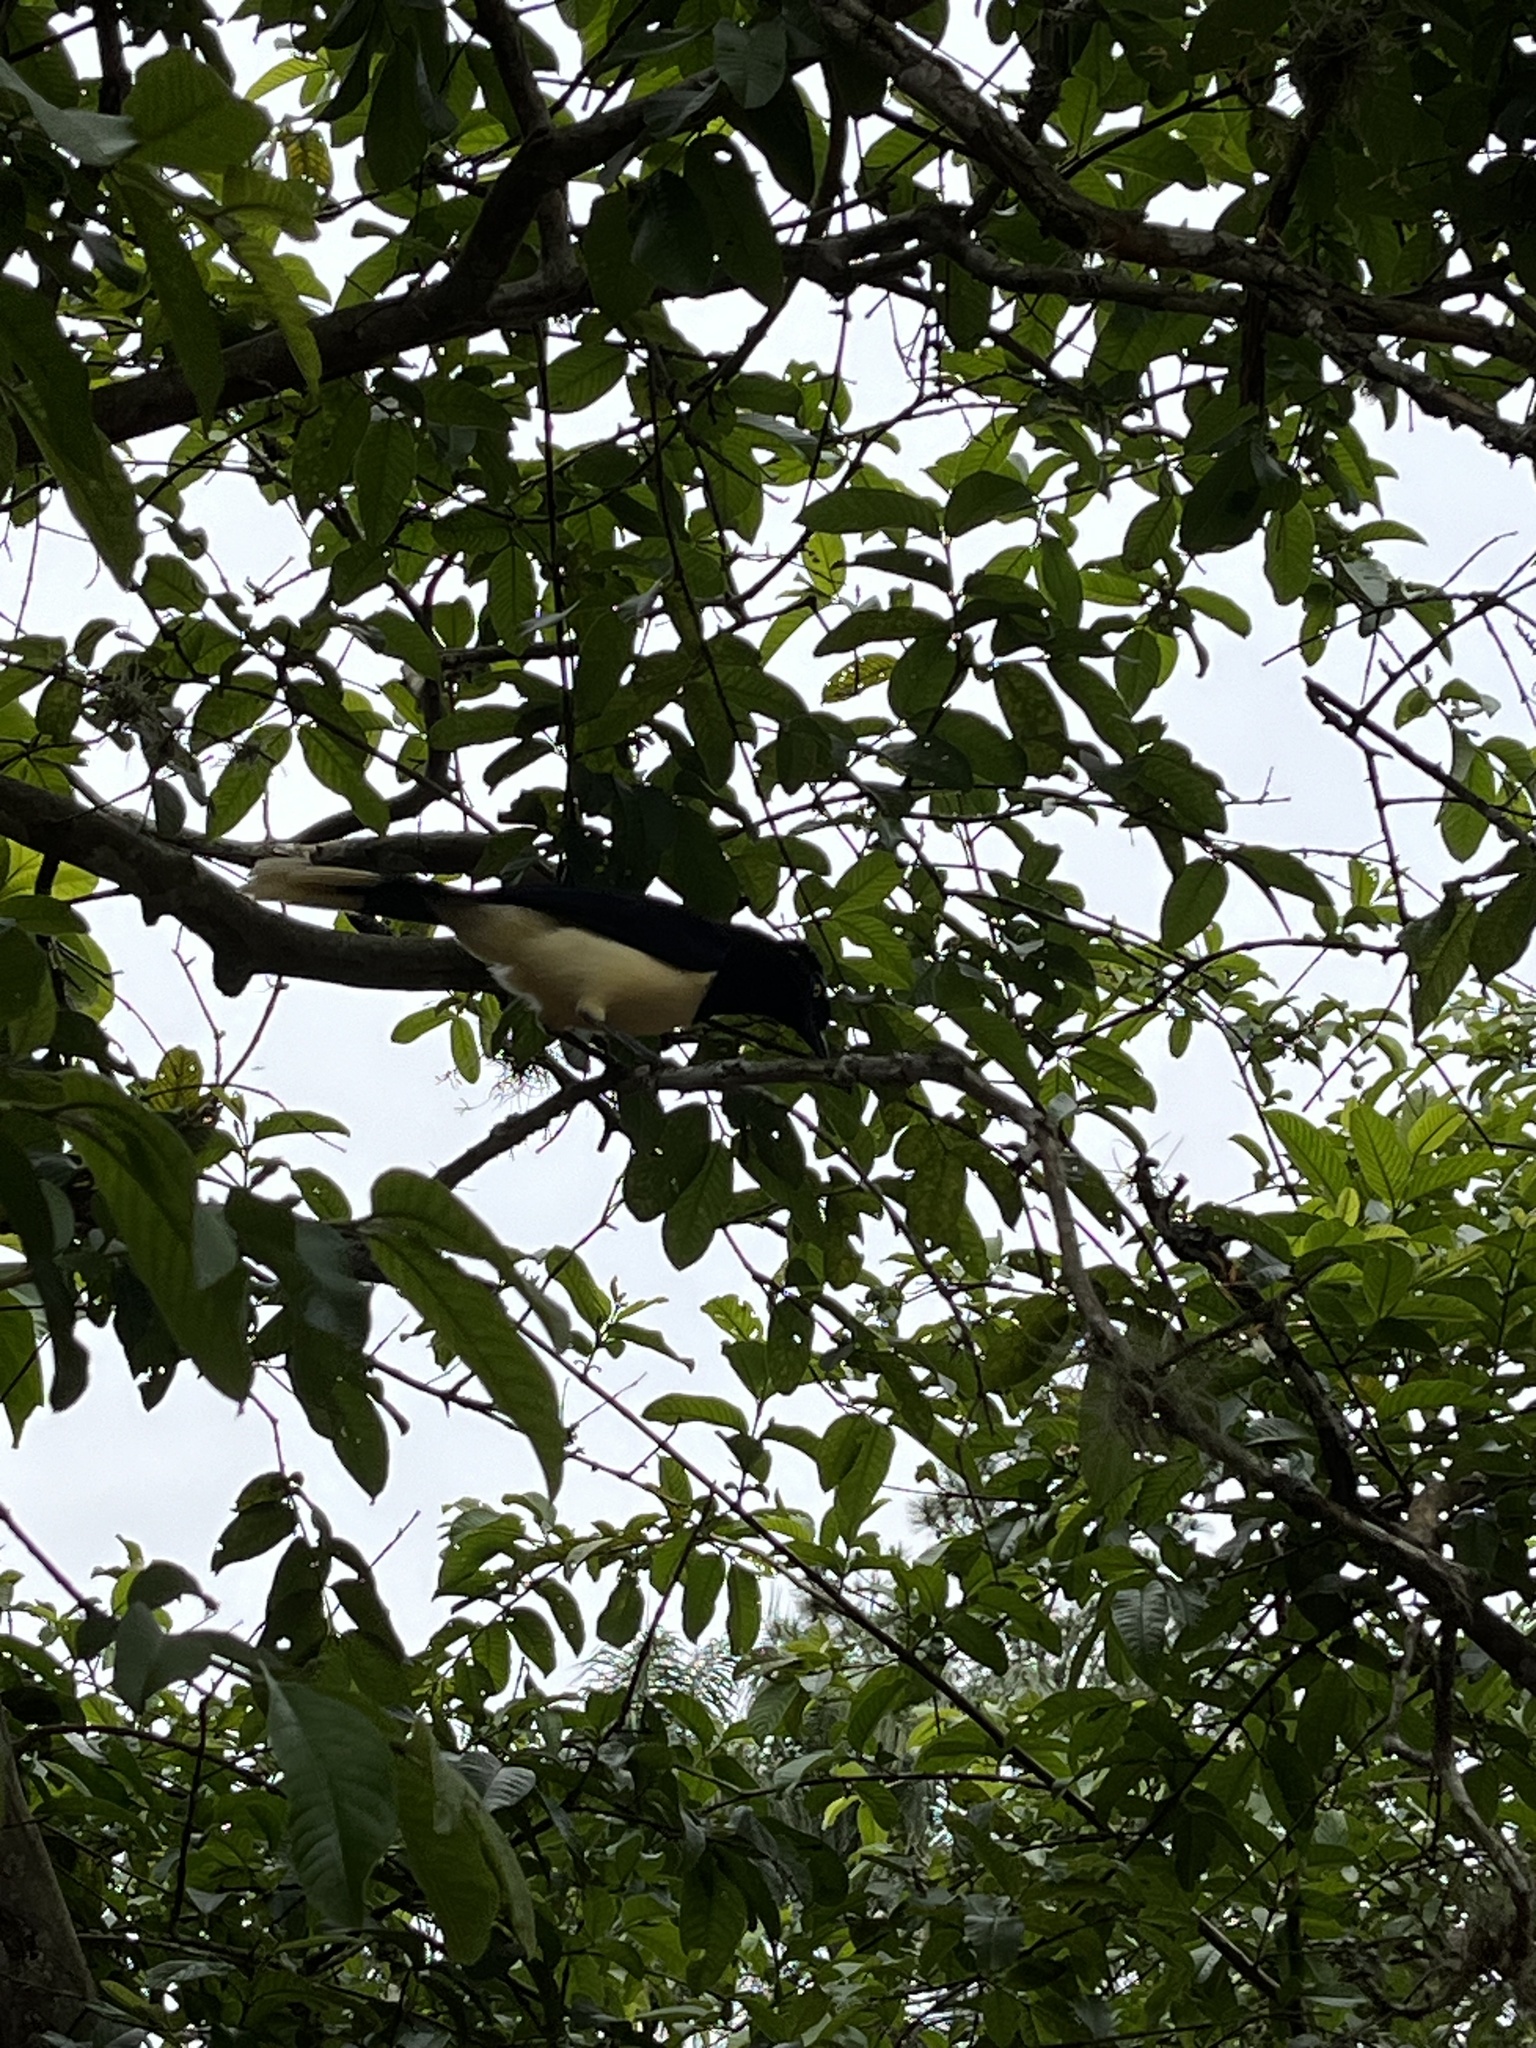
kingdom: Animalia
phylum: Chordata
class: Aves
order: Passeriformes
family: Corvidae
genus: Cyanocorax
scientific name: Cyanocorax chrysops
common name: Plush-crested jay
